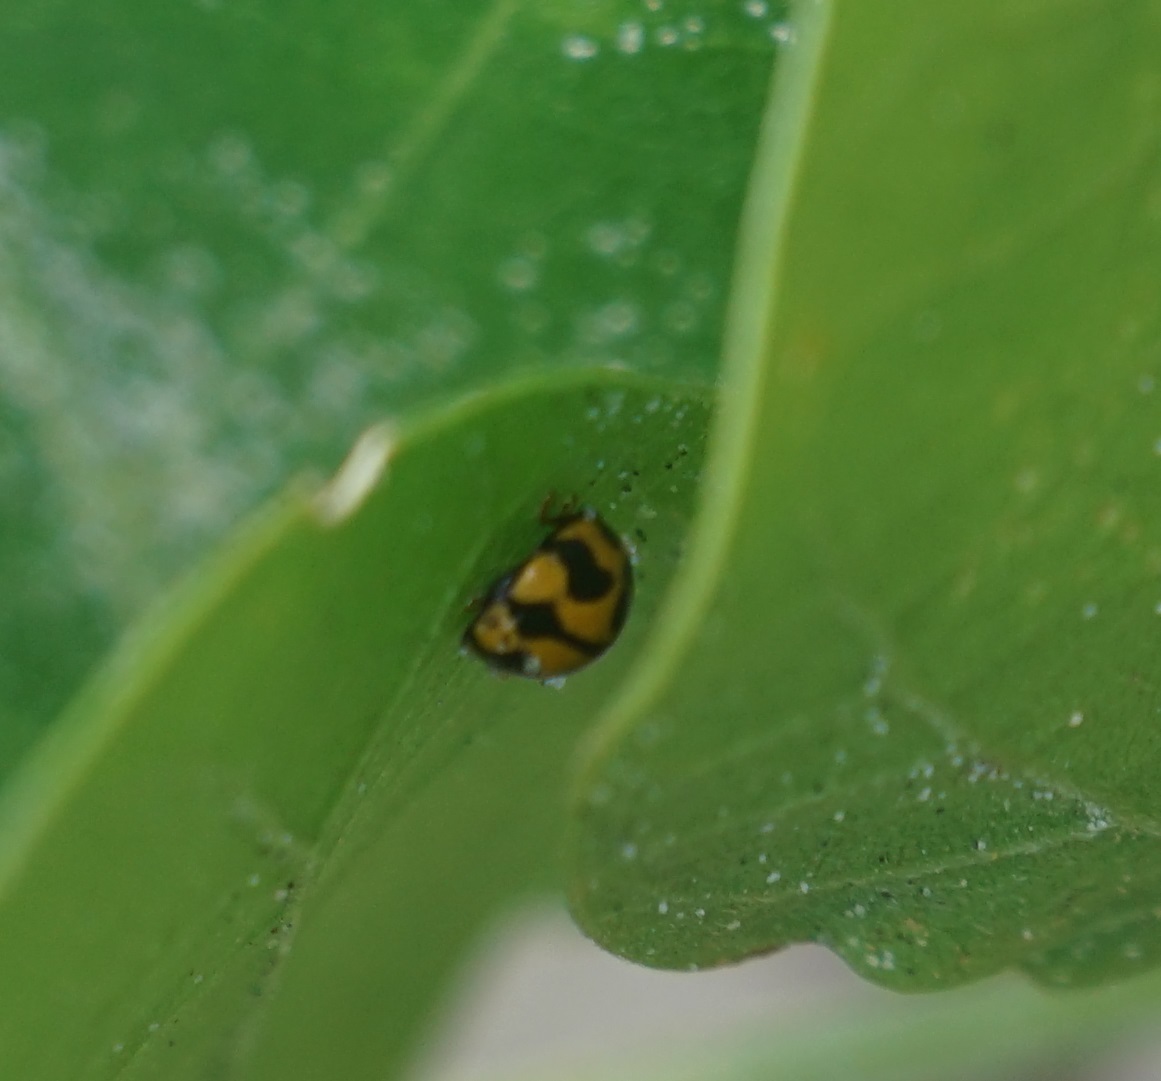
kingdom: Animalia
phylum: Arthropoda
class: Insecta
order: Coleoptera
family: Coccinellidae
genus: Coelophora
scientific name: Coelophora inaequalis
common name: Common australian lady beetle
